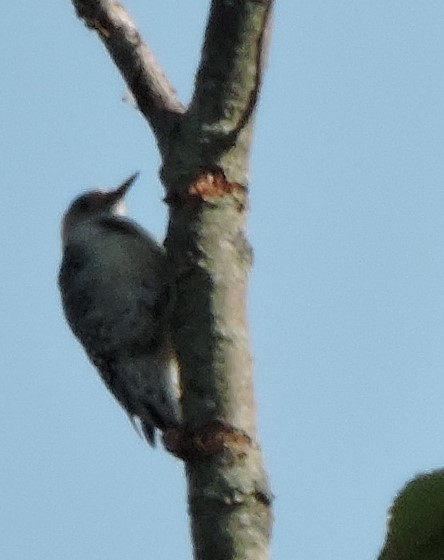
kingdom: Animalia
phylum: Chordata
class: Aves
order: Piciformes
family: Picidae
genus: Melanerpes
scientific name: Melanerpes carolinus
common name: Red-bellied woodpecker
